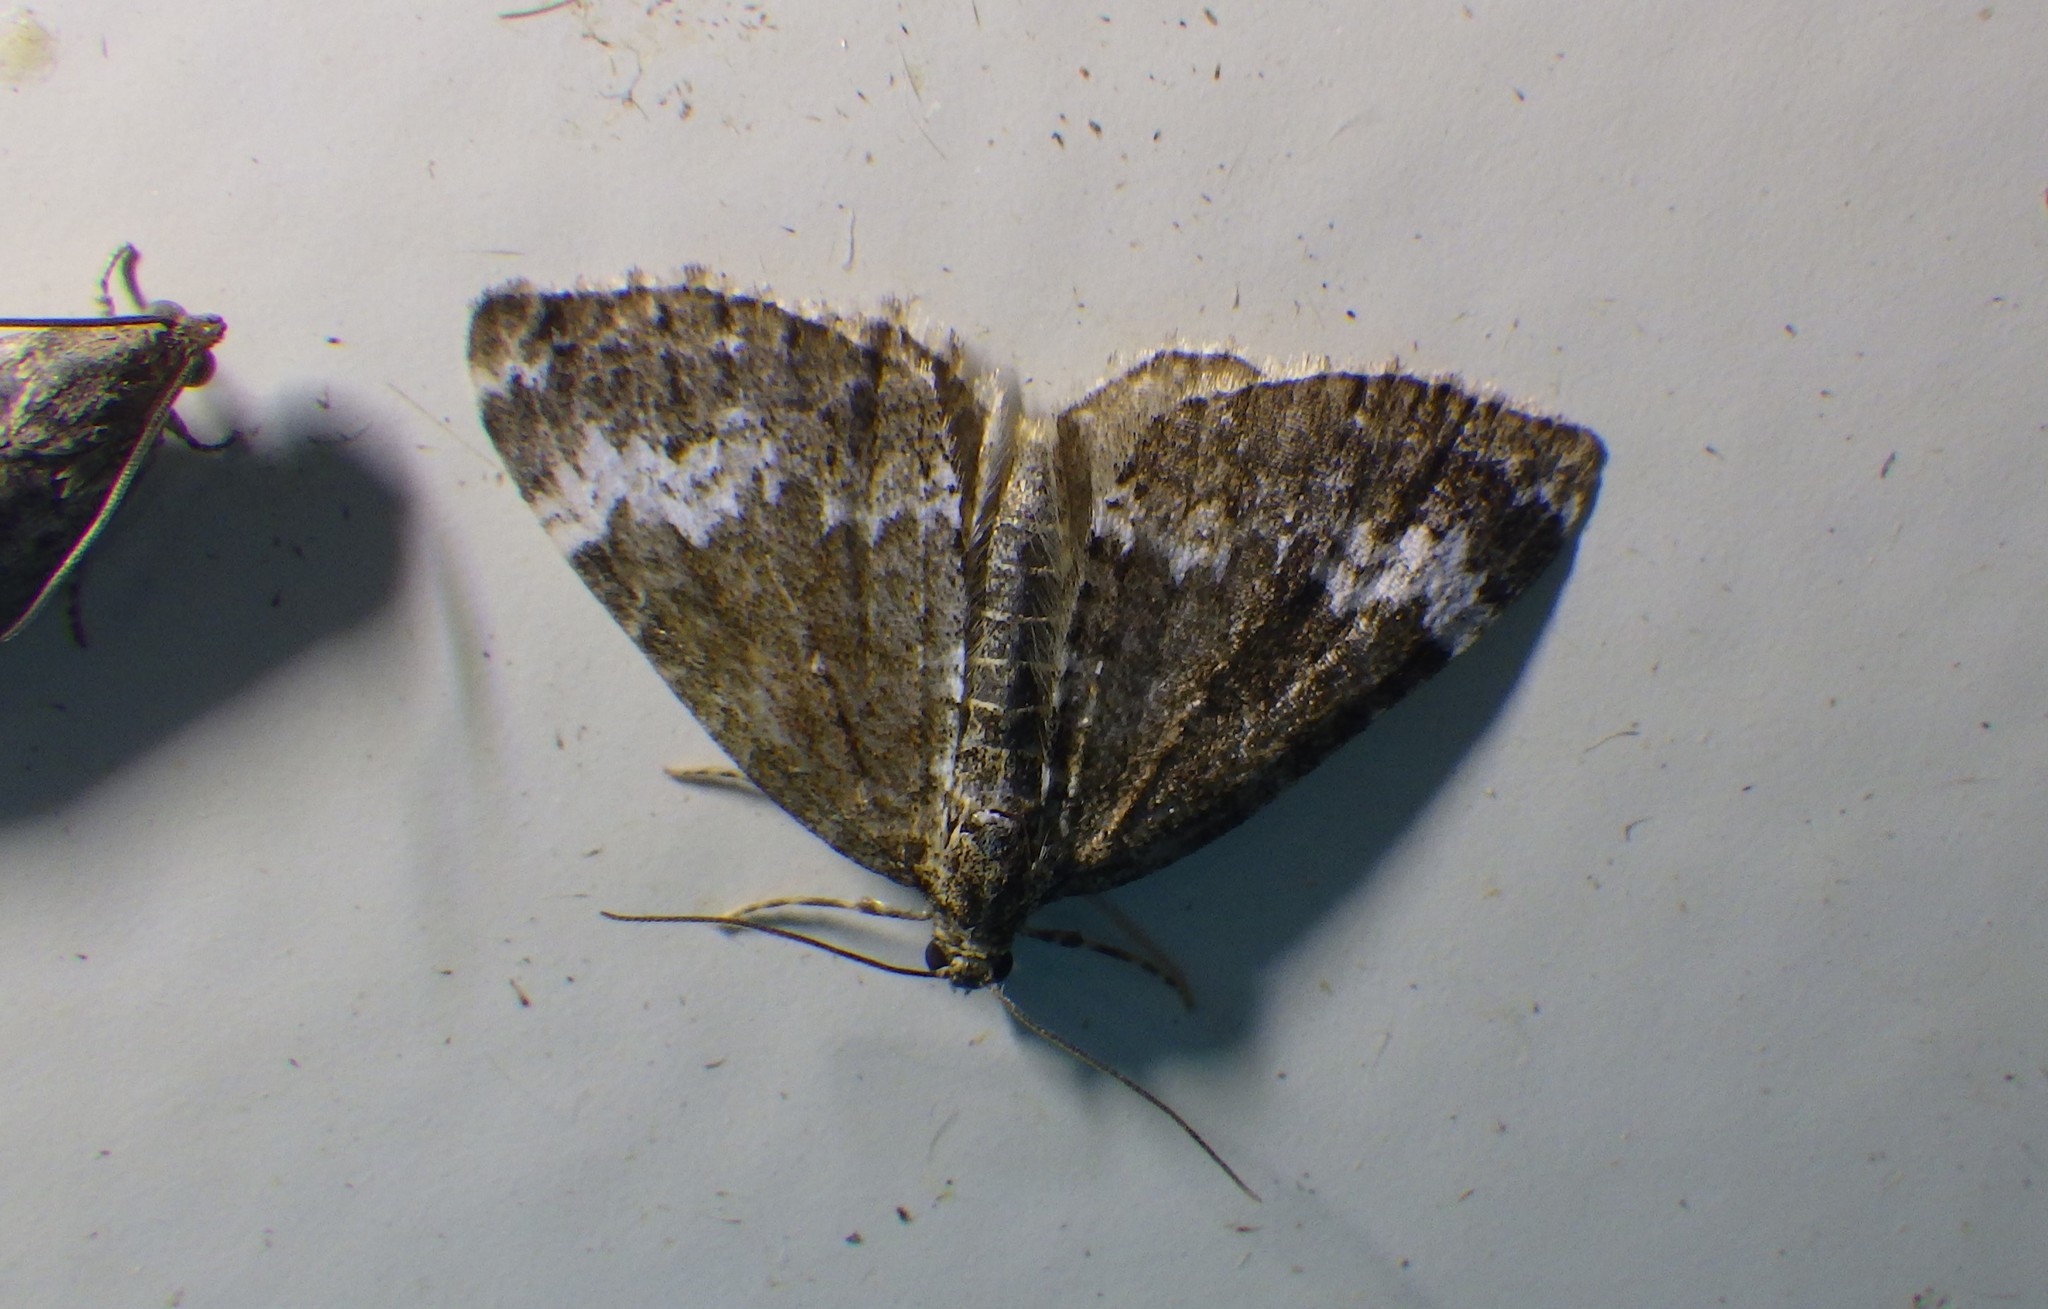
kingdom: Animalia
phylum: Arthropoda
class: Insecta
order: Lepidoptera
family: Geometridae
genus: Perizoma
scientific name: Perizoma alchemillata
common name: Small rivulet
